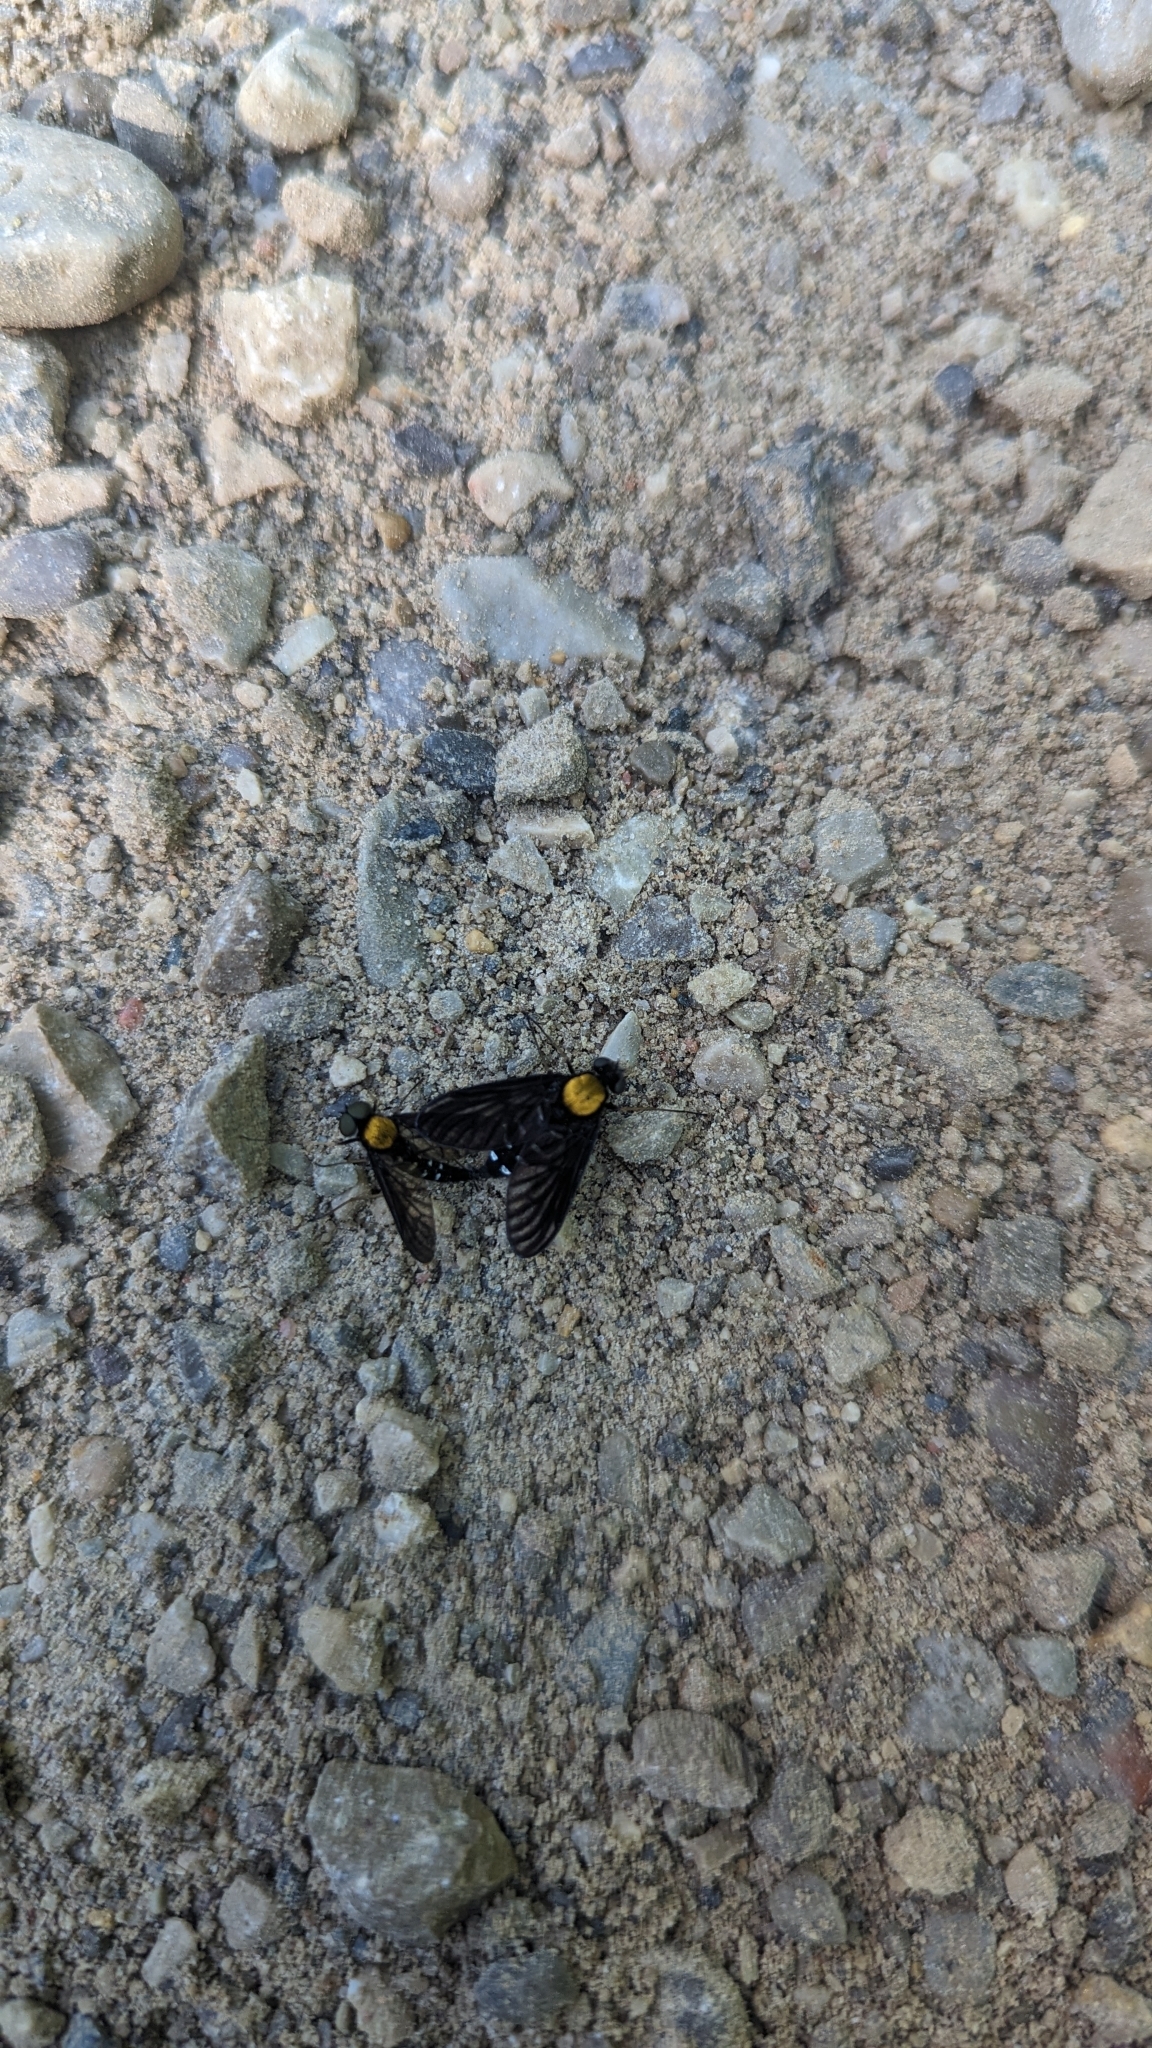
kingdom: Animalia
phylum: Arthropoda
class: Insecta
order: Diptera
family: Rhagionidae
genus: Chrysopilus
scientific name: Chrysopilus thoracicus
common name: Golden-backed snipe fly
